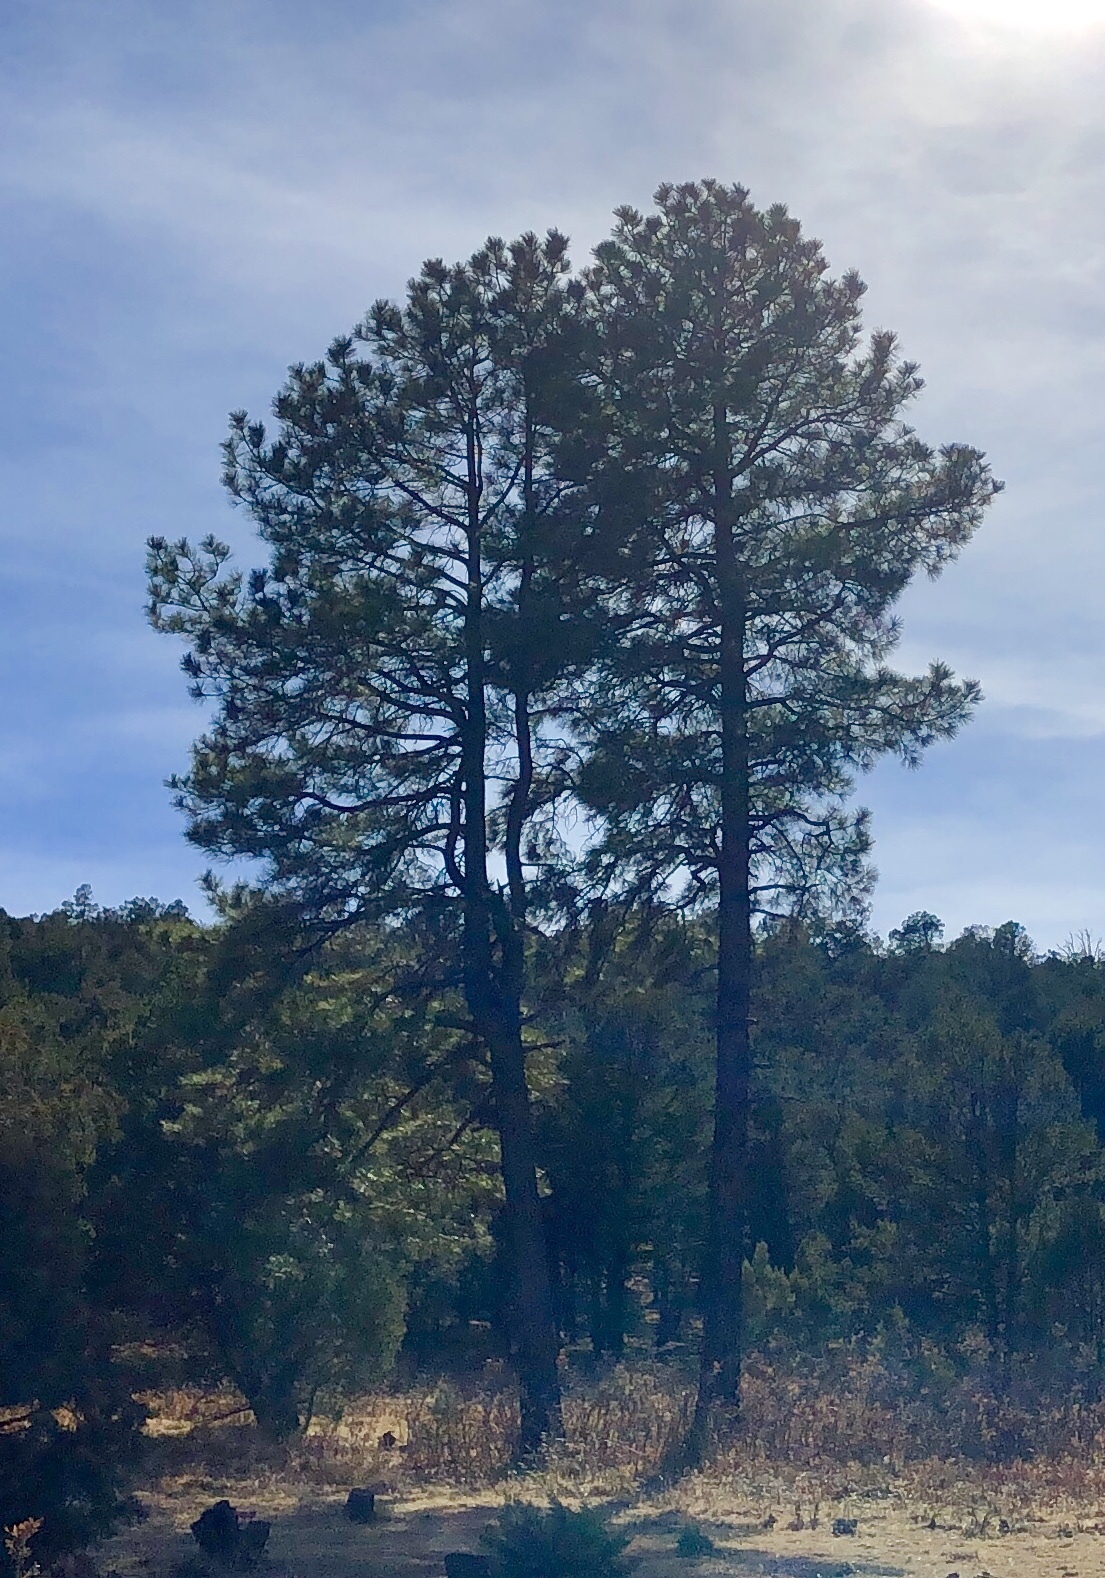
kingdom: Plantae
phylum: Tracheophyta
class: Pinopsida
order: Pinales
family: Pinaceae
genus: Pinus
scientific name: Pinus ponderosa
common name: Western yellow-pine
